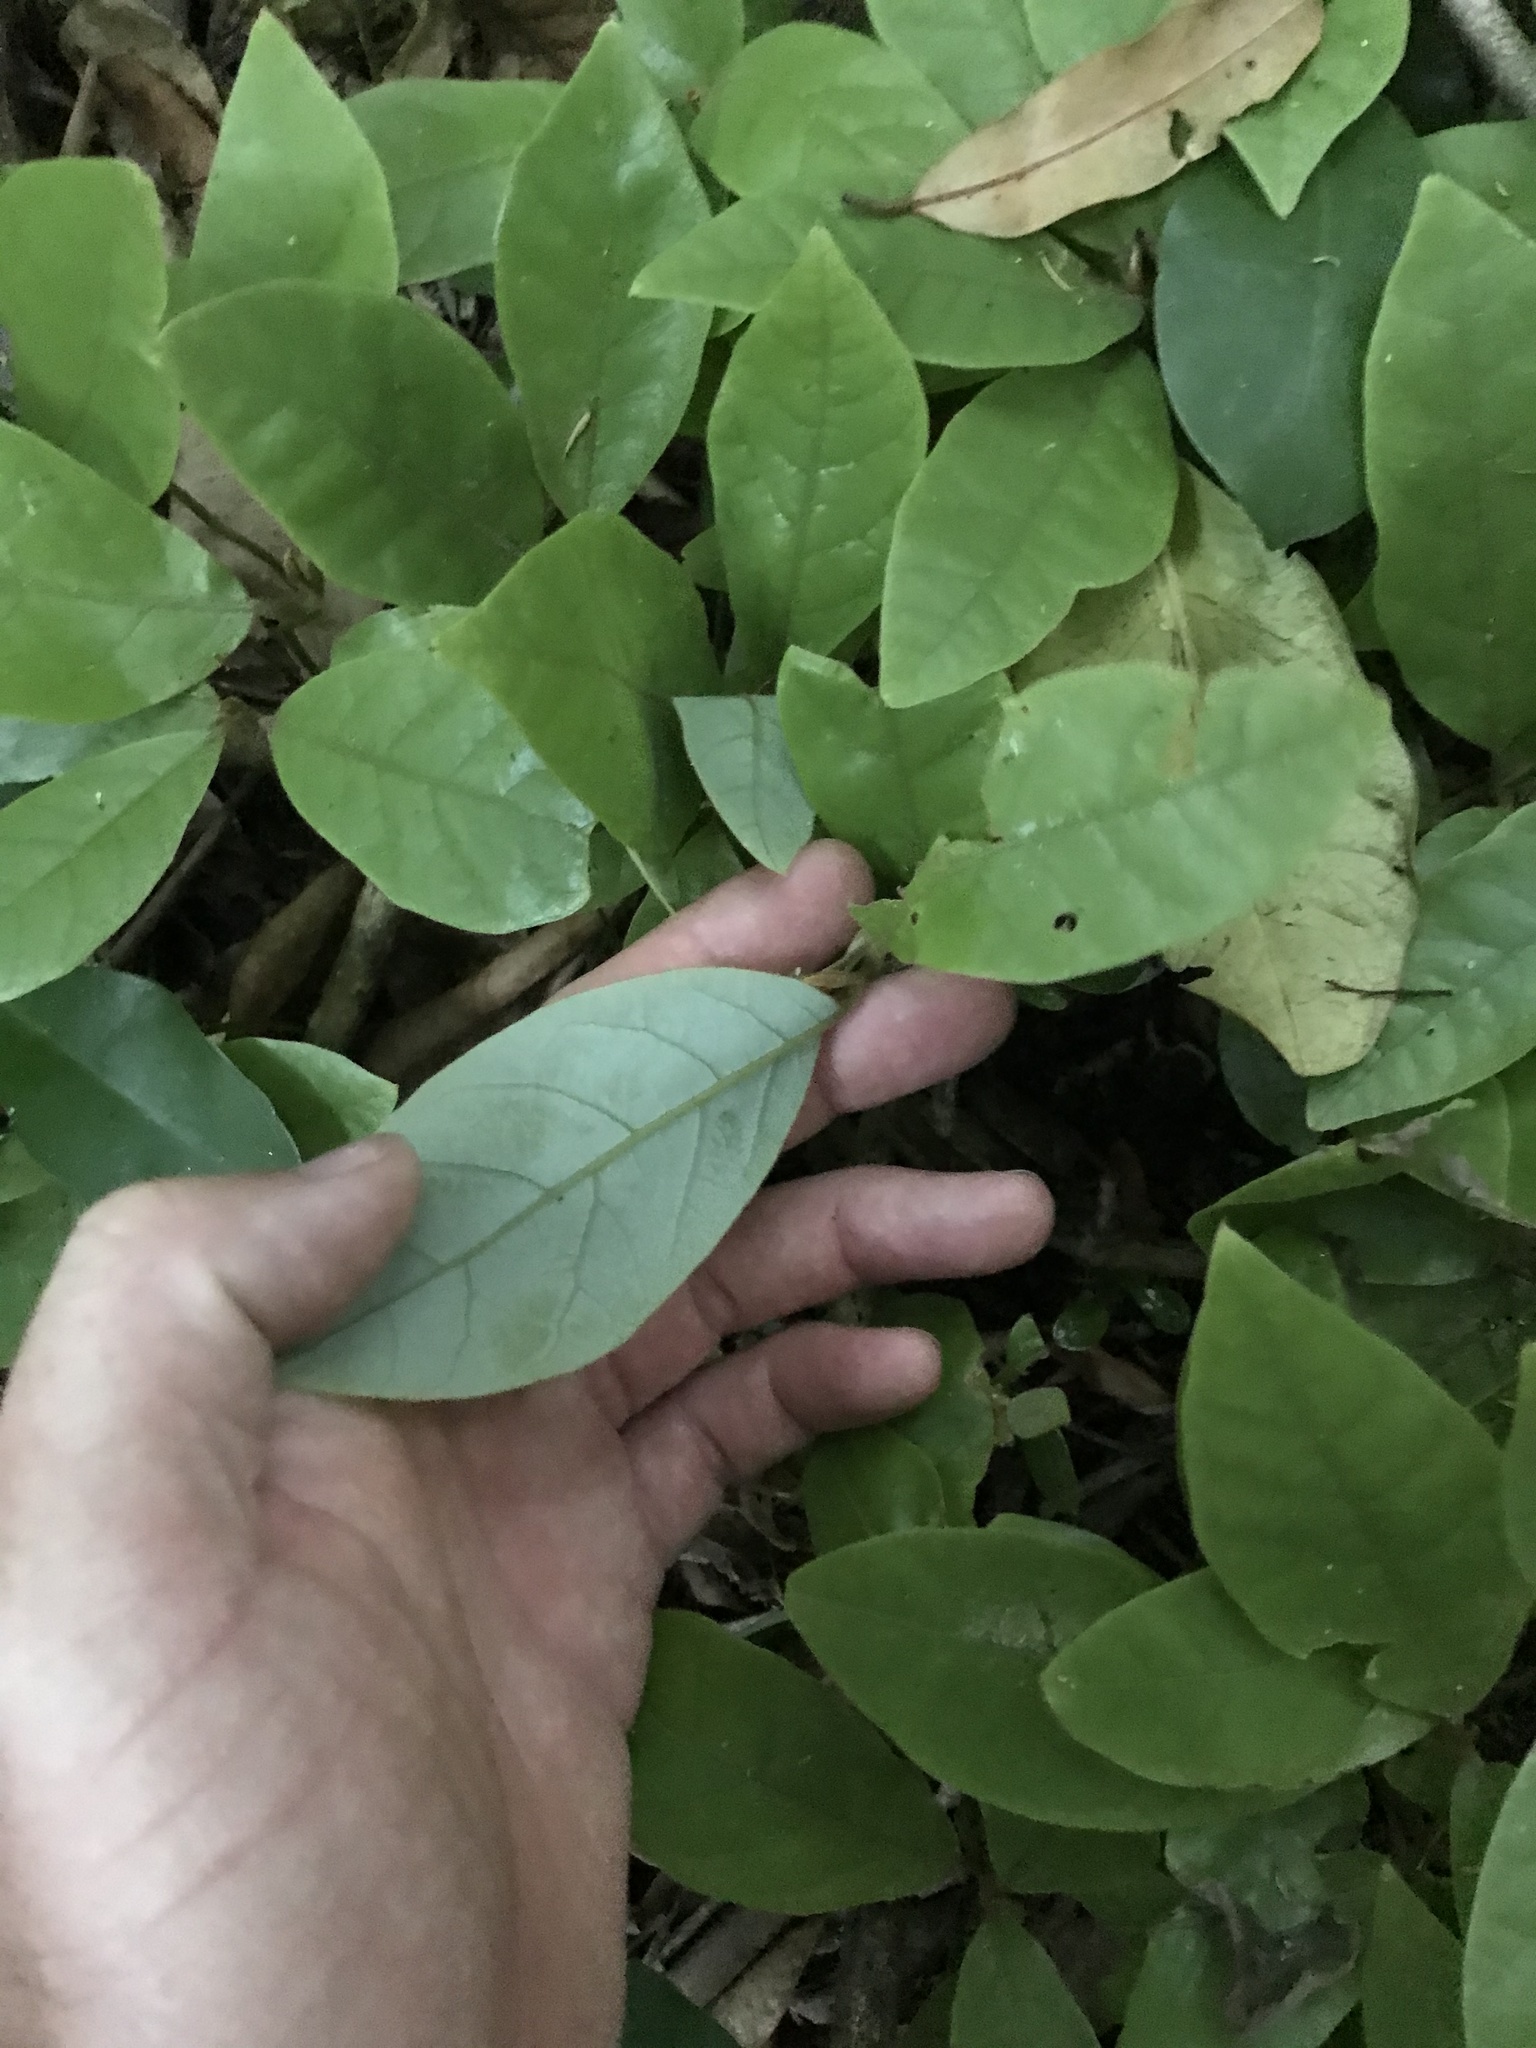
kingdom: Plantae
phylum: Tracheophyta
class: Magnoliopsida
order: Laurales
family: Lauraceae
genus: Litsea
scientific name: Litsea calicaris
